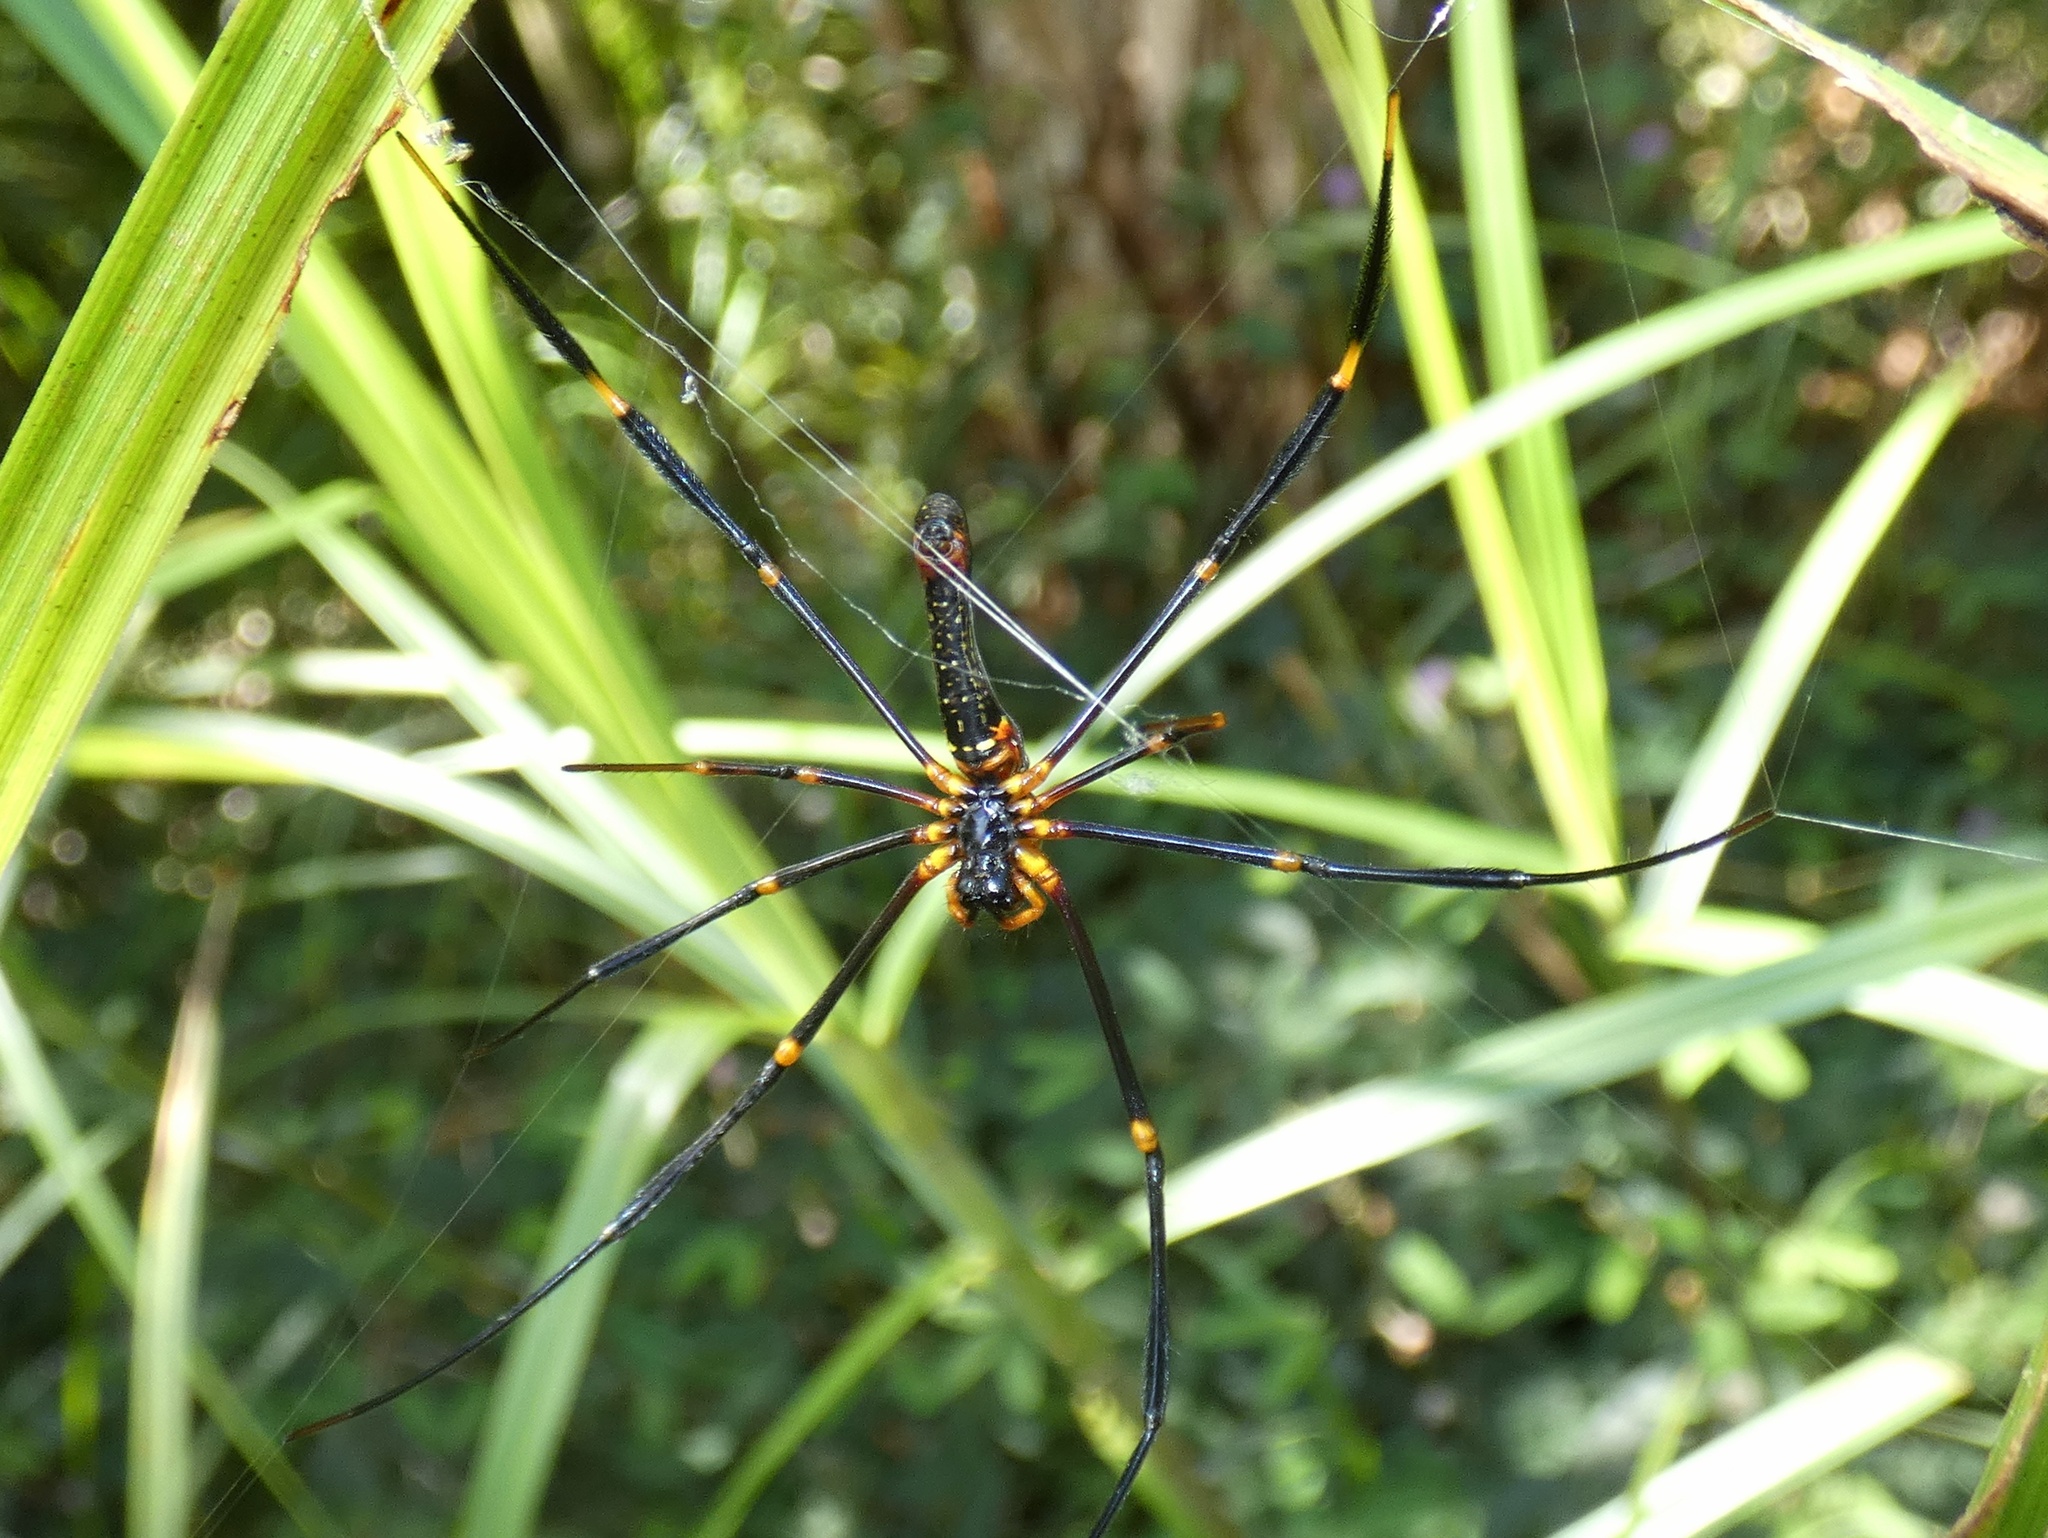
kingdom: Animalia
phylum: Arthropoda
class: Arachnida
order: Araneae
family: Araneidae
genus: Nephila
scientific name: Nephila pilipes
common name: Giant golden orb weaver
